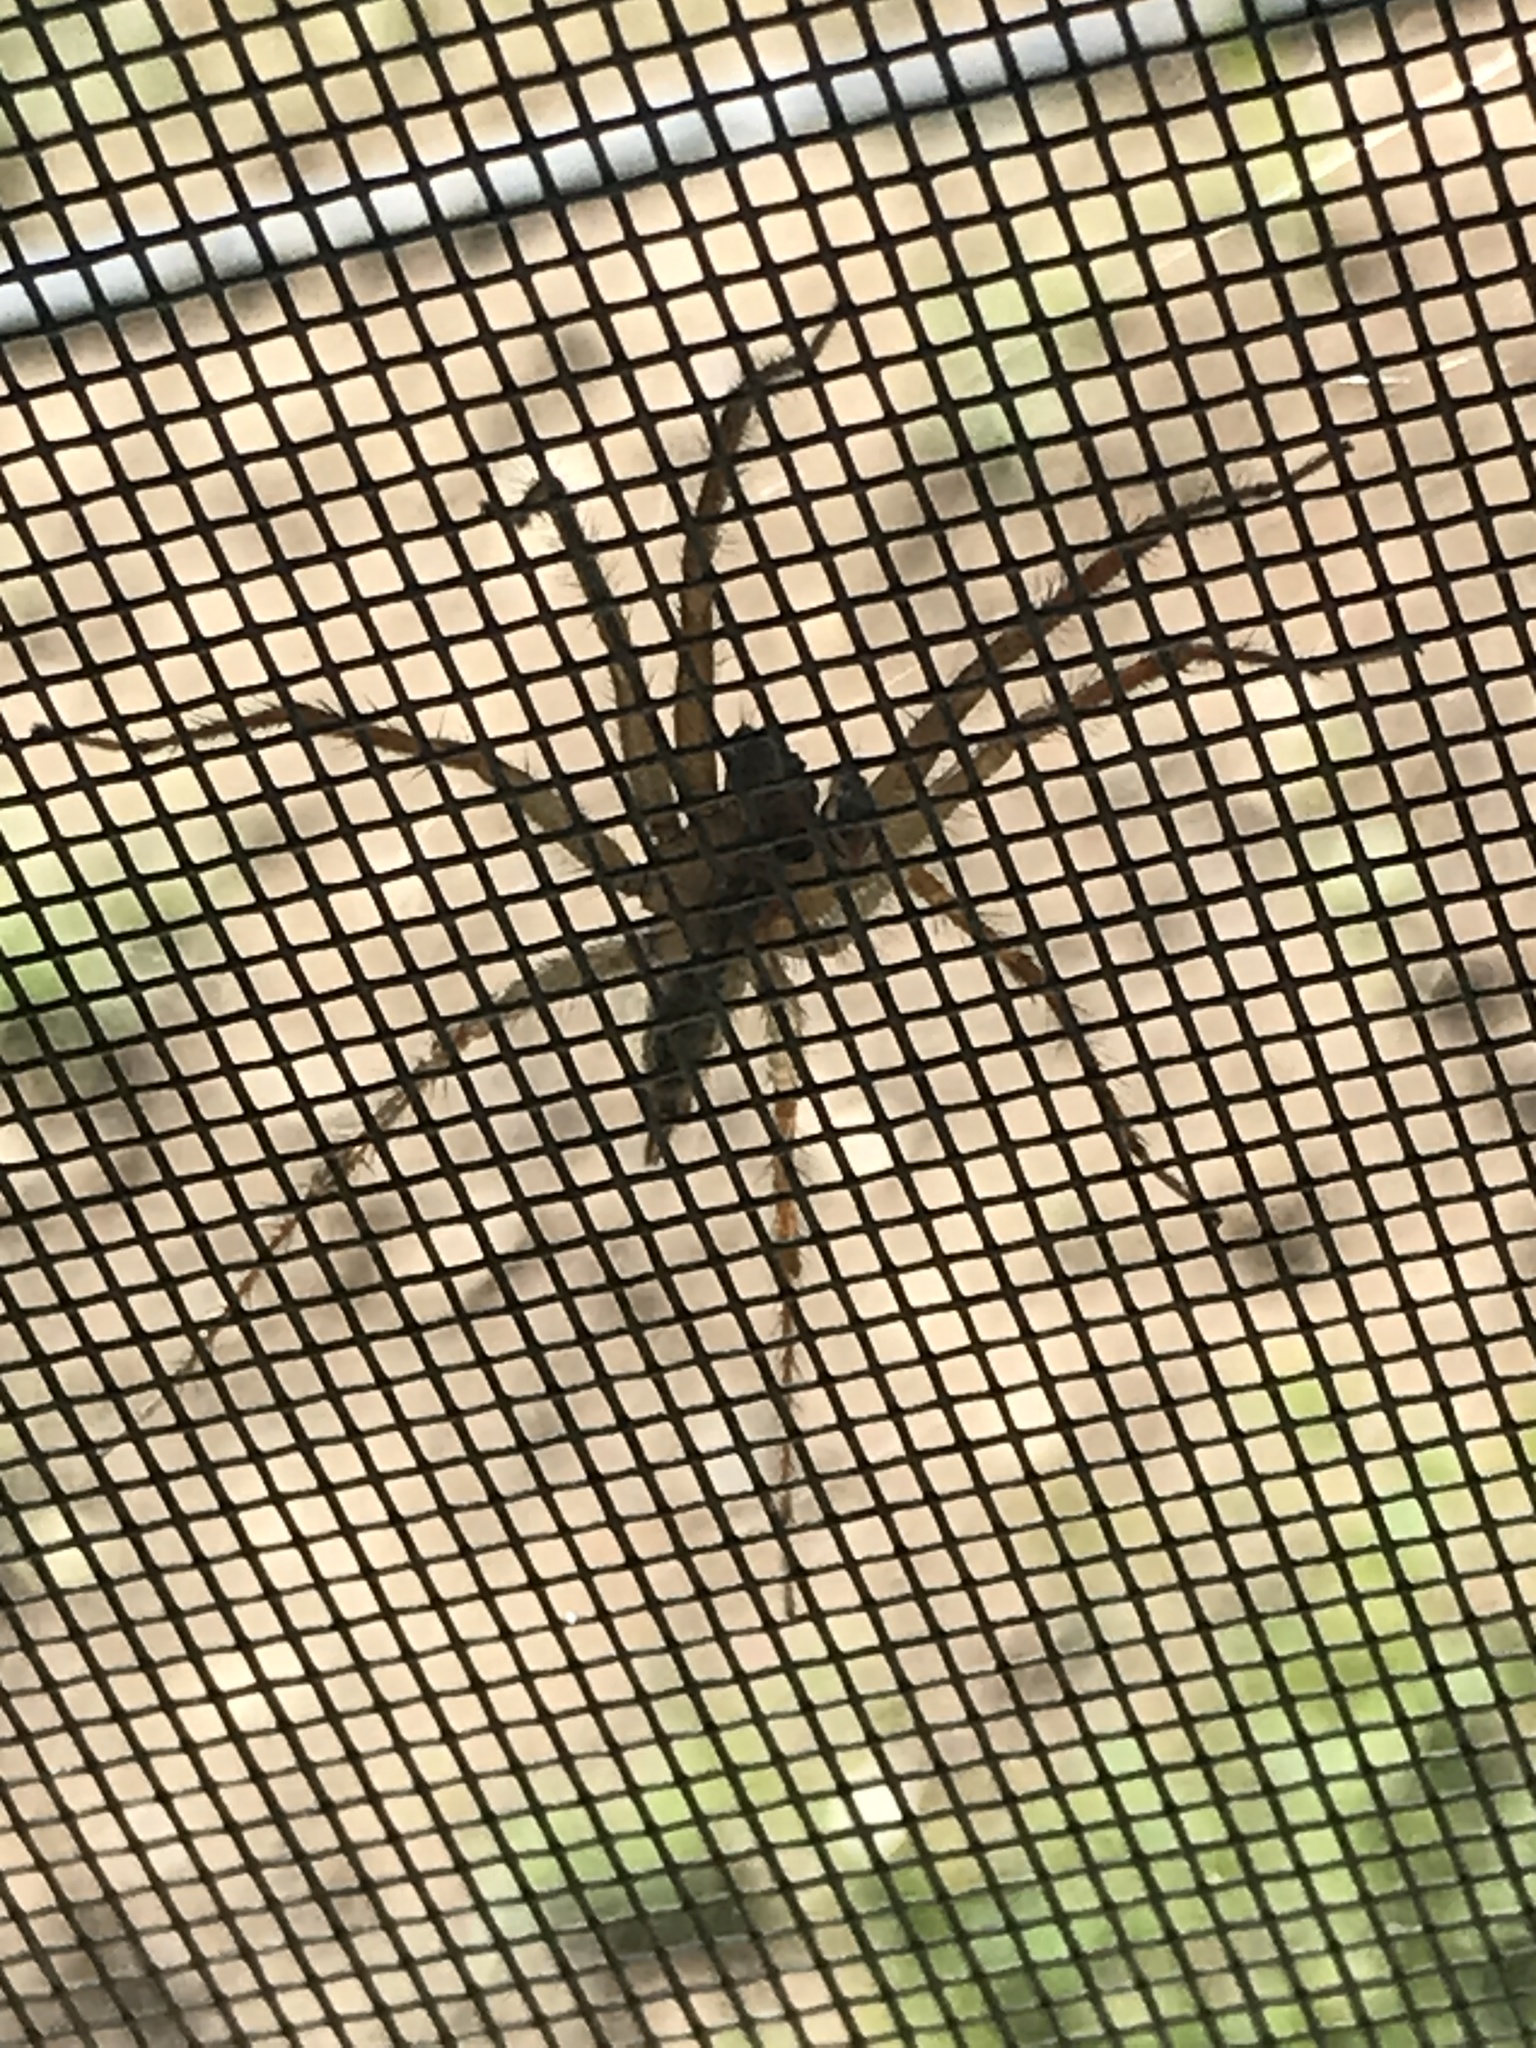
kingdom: Animalia
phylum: Arthropoda
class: Arachnida
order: Araneae
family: Agelenidae
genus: Agelenopsis
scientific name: Agelenopsis
